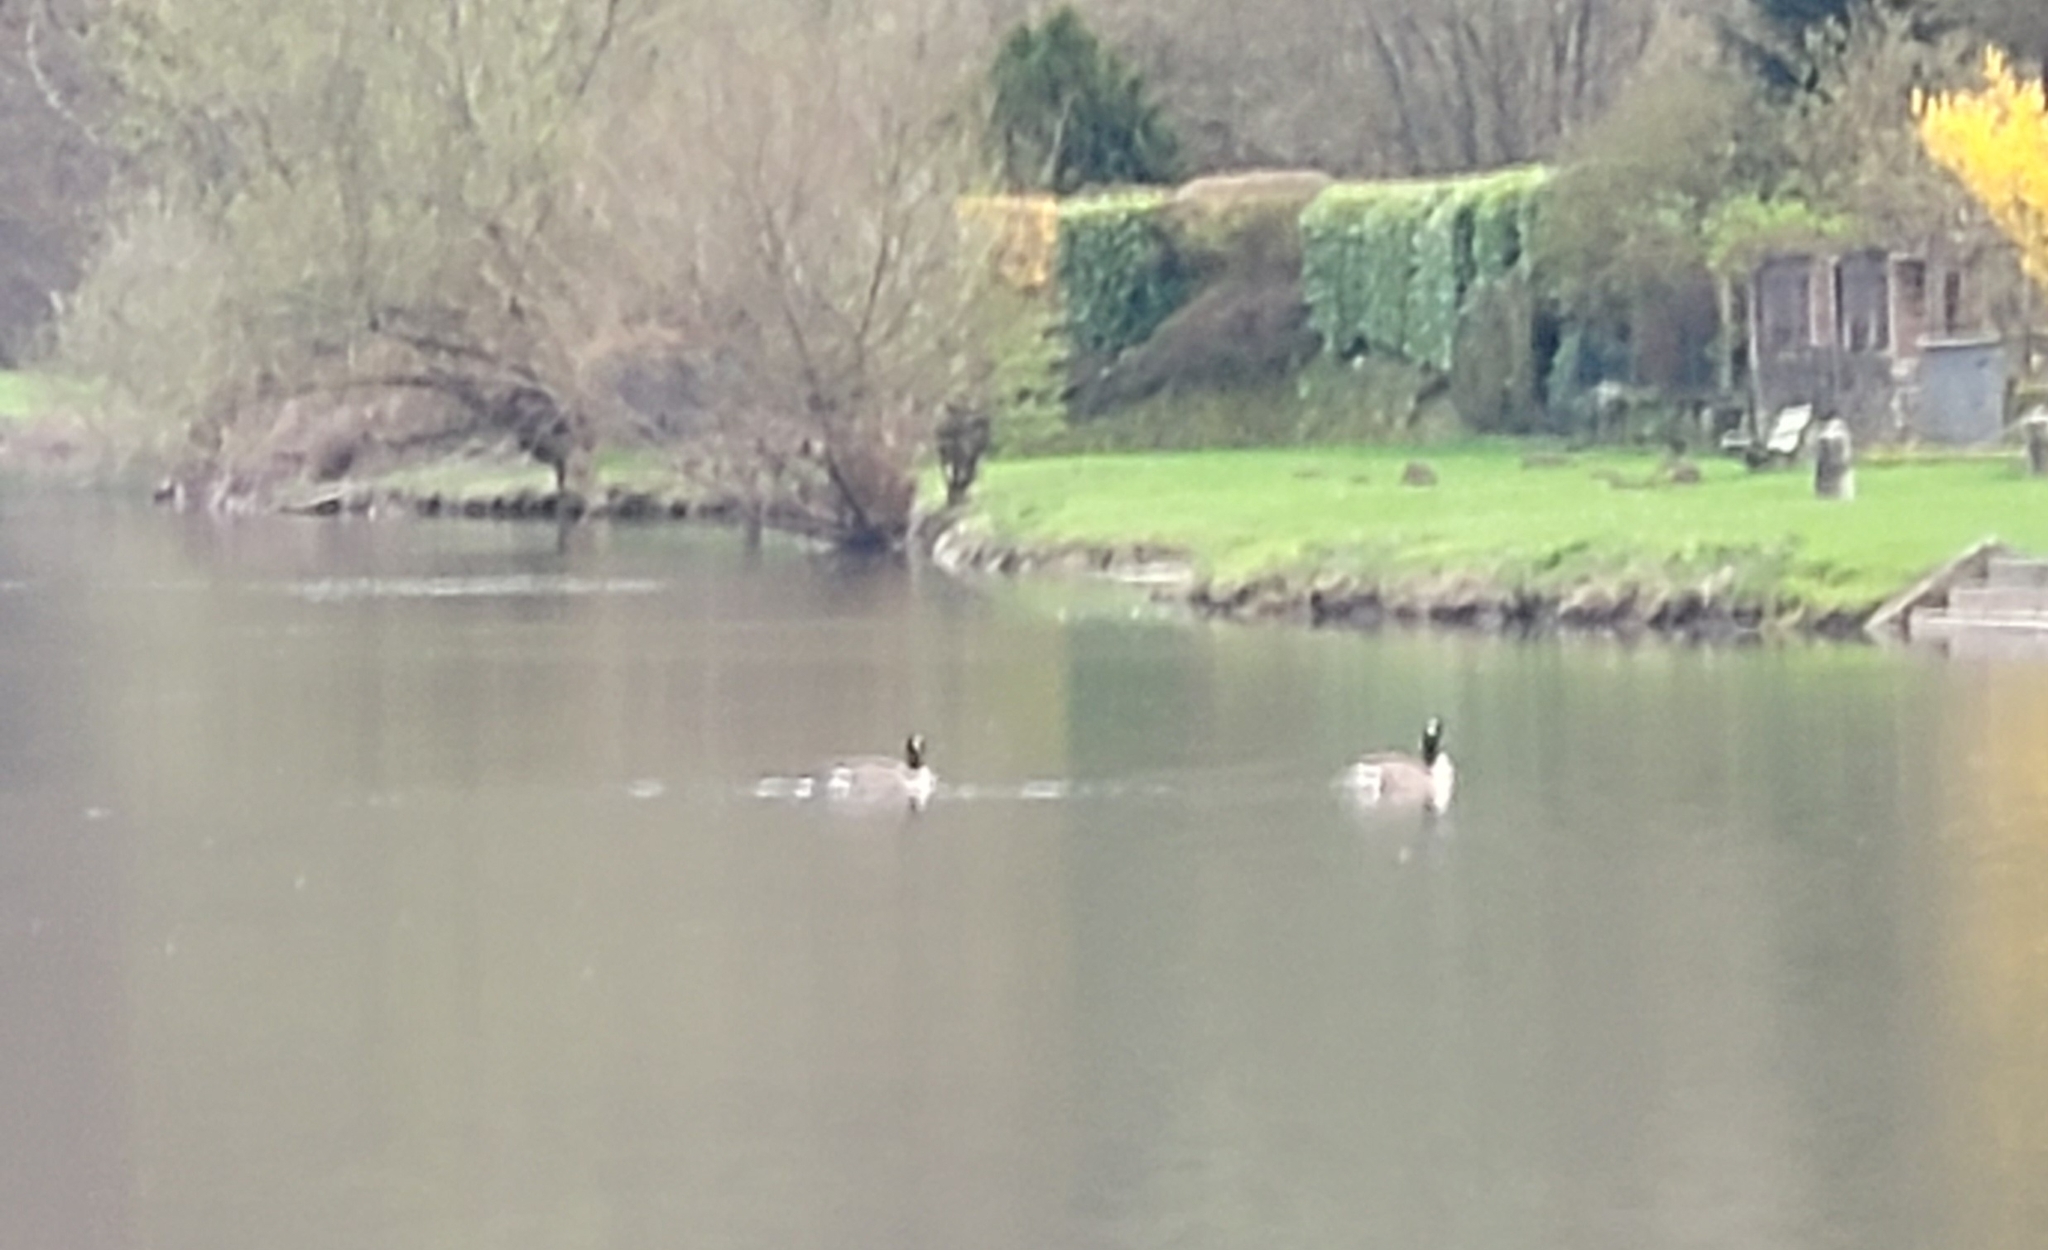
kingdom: Animalia
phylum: Chordata
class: Aves
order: Anseriformes
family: Anatidae
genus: Branta
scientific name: Branta canadensis
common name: Canada goose
